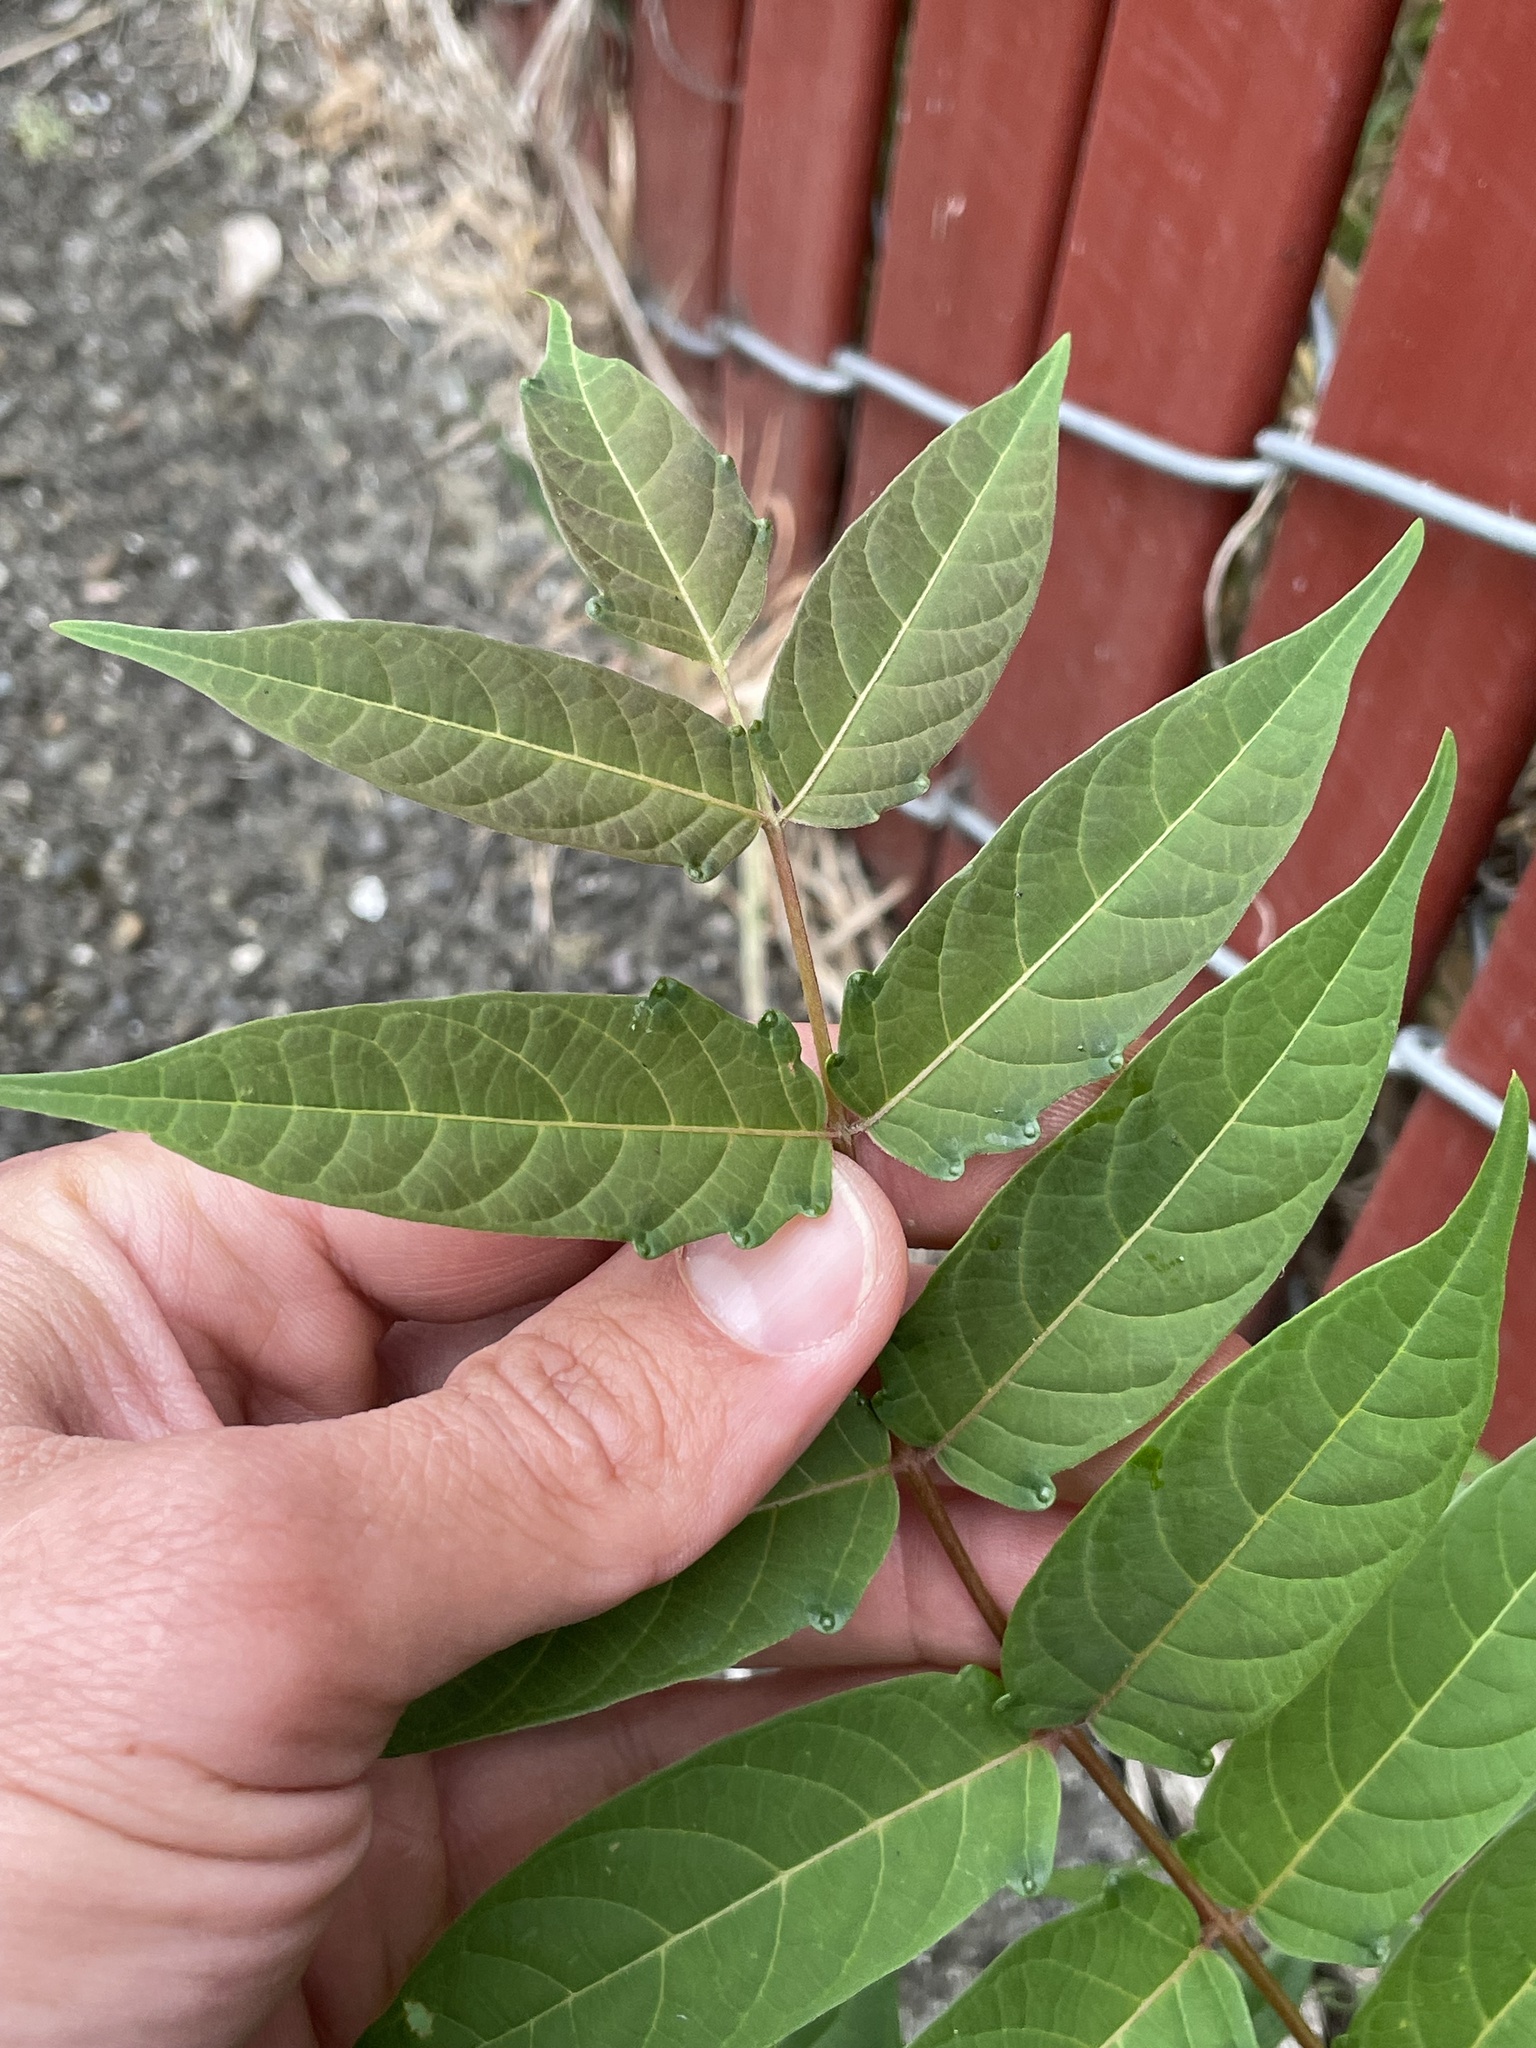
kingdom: Plantae
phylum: Tracheophyta
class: Magnoliopsida
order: Sapindales
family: Simaroubaceae
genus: Ailanthus
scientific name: Ailanthus altissima
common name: Tree-of-heaven
